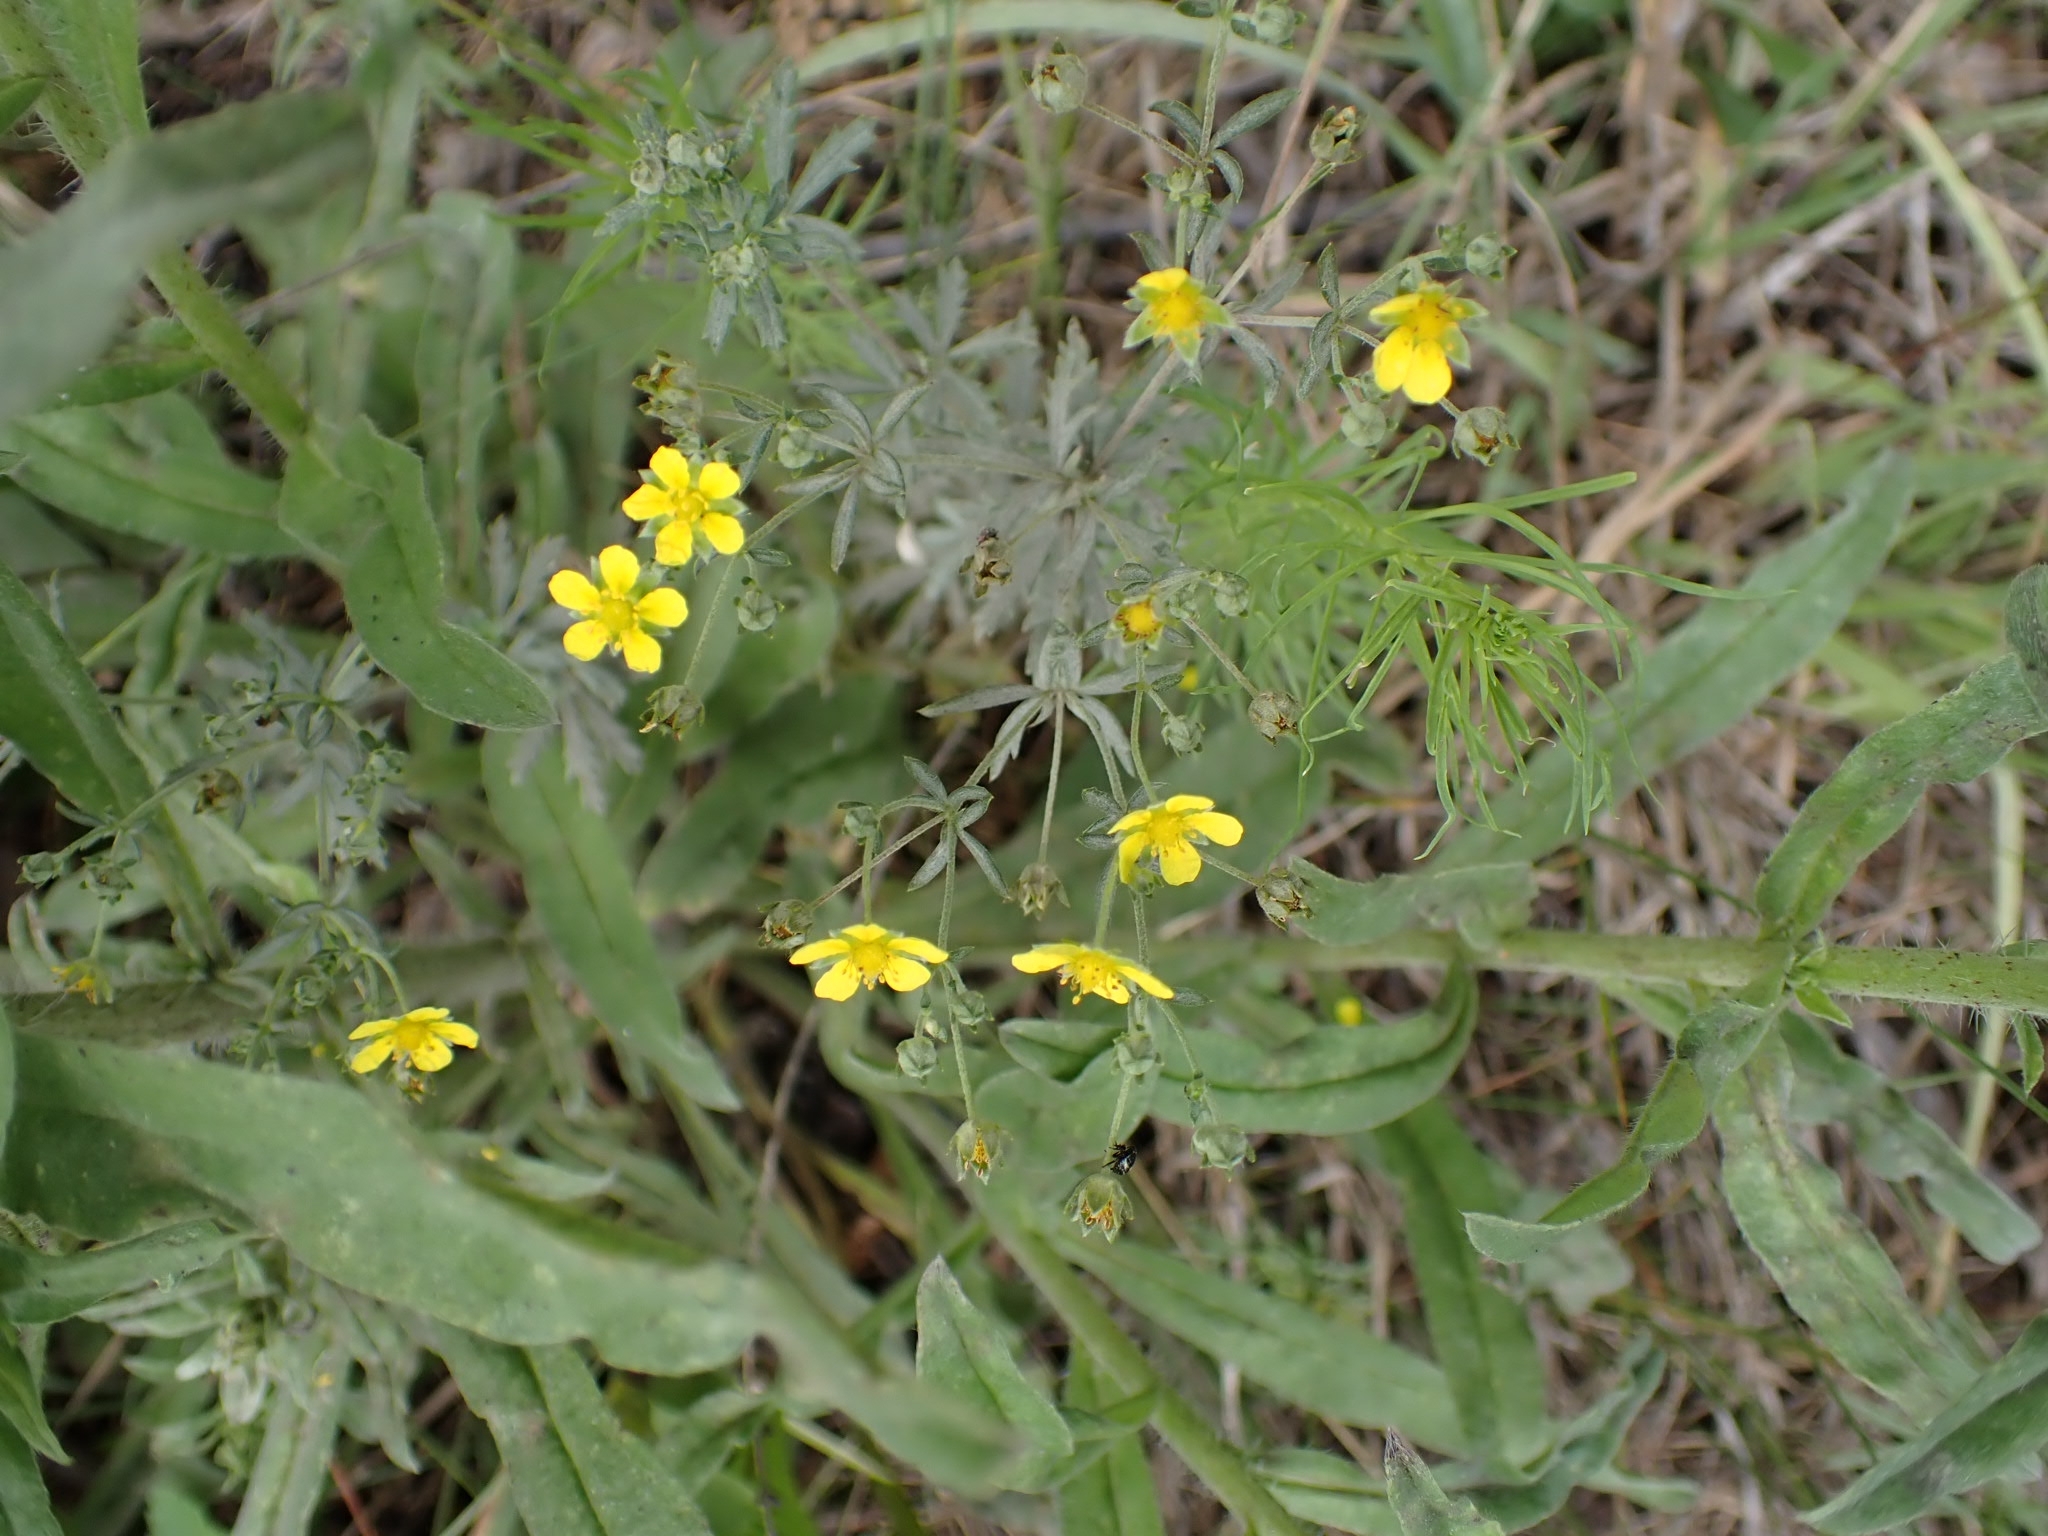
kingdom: Plantae
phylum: Tracheophyta
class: Magnoliopsida
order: Rosales
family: Rosaceae
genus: Potentilla
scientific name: Potentilla argentea
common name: Hoary cinquefoil
